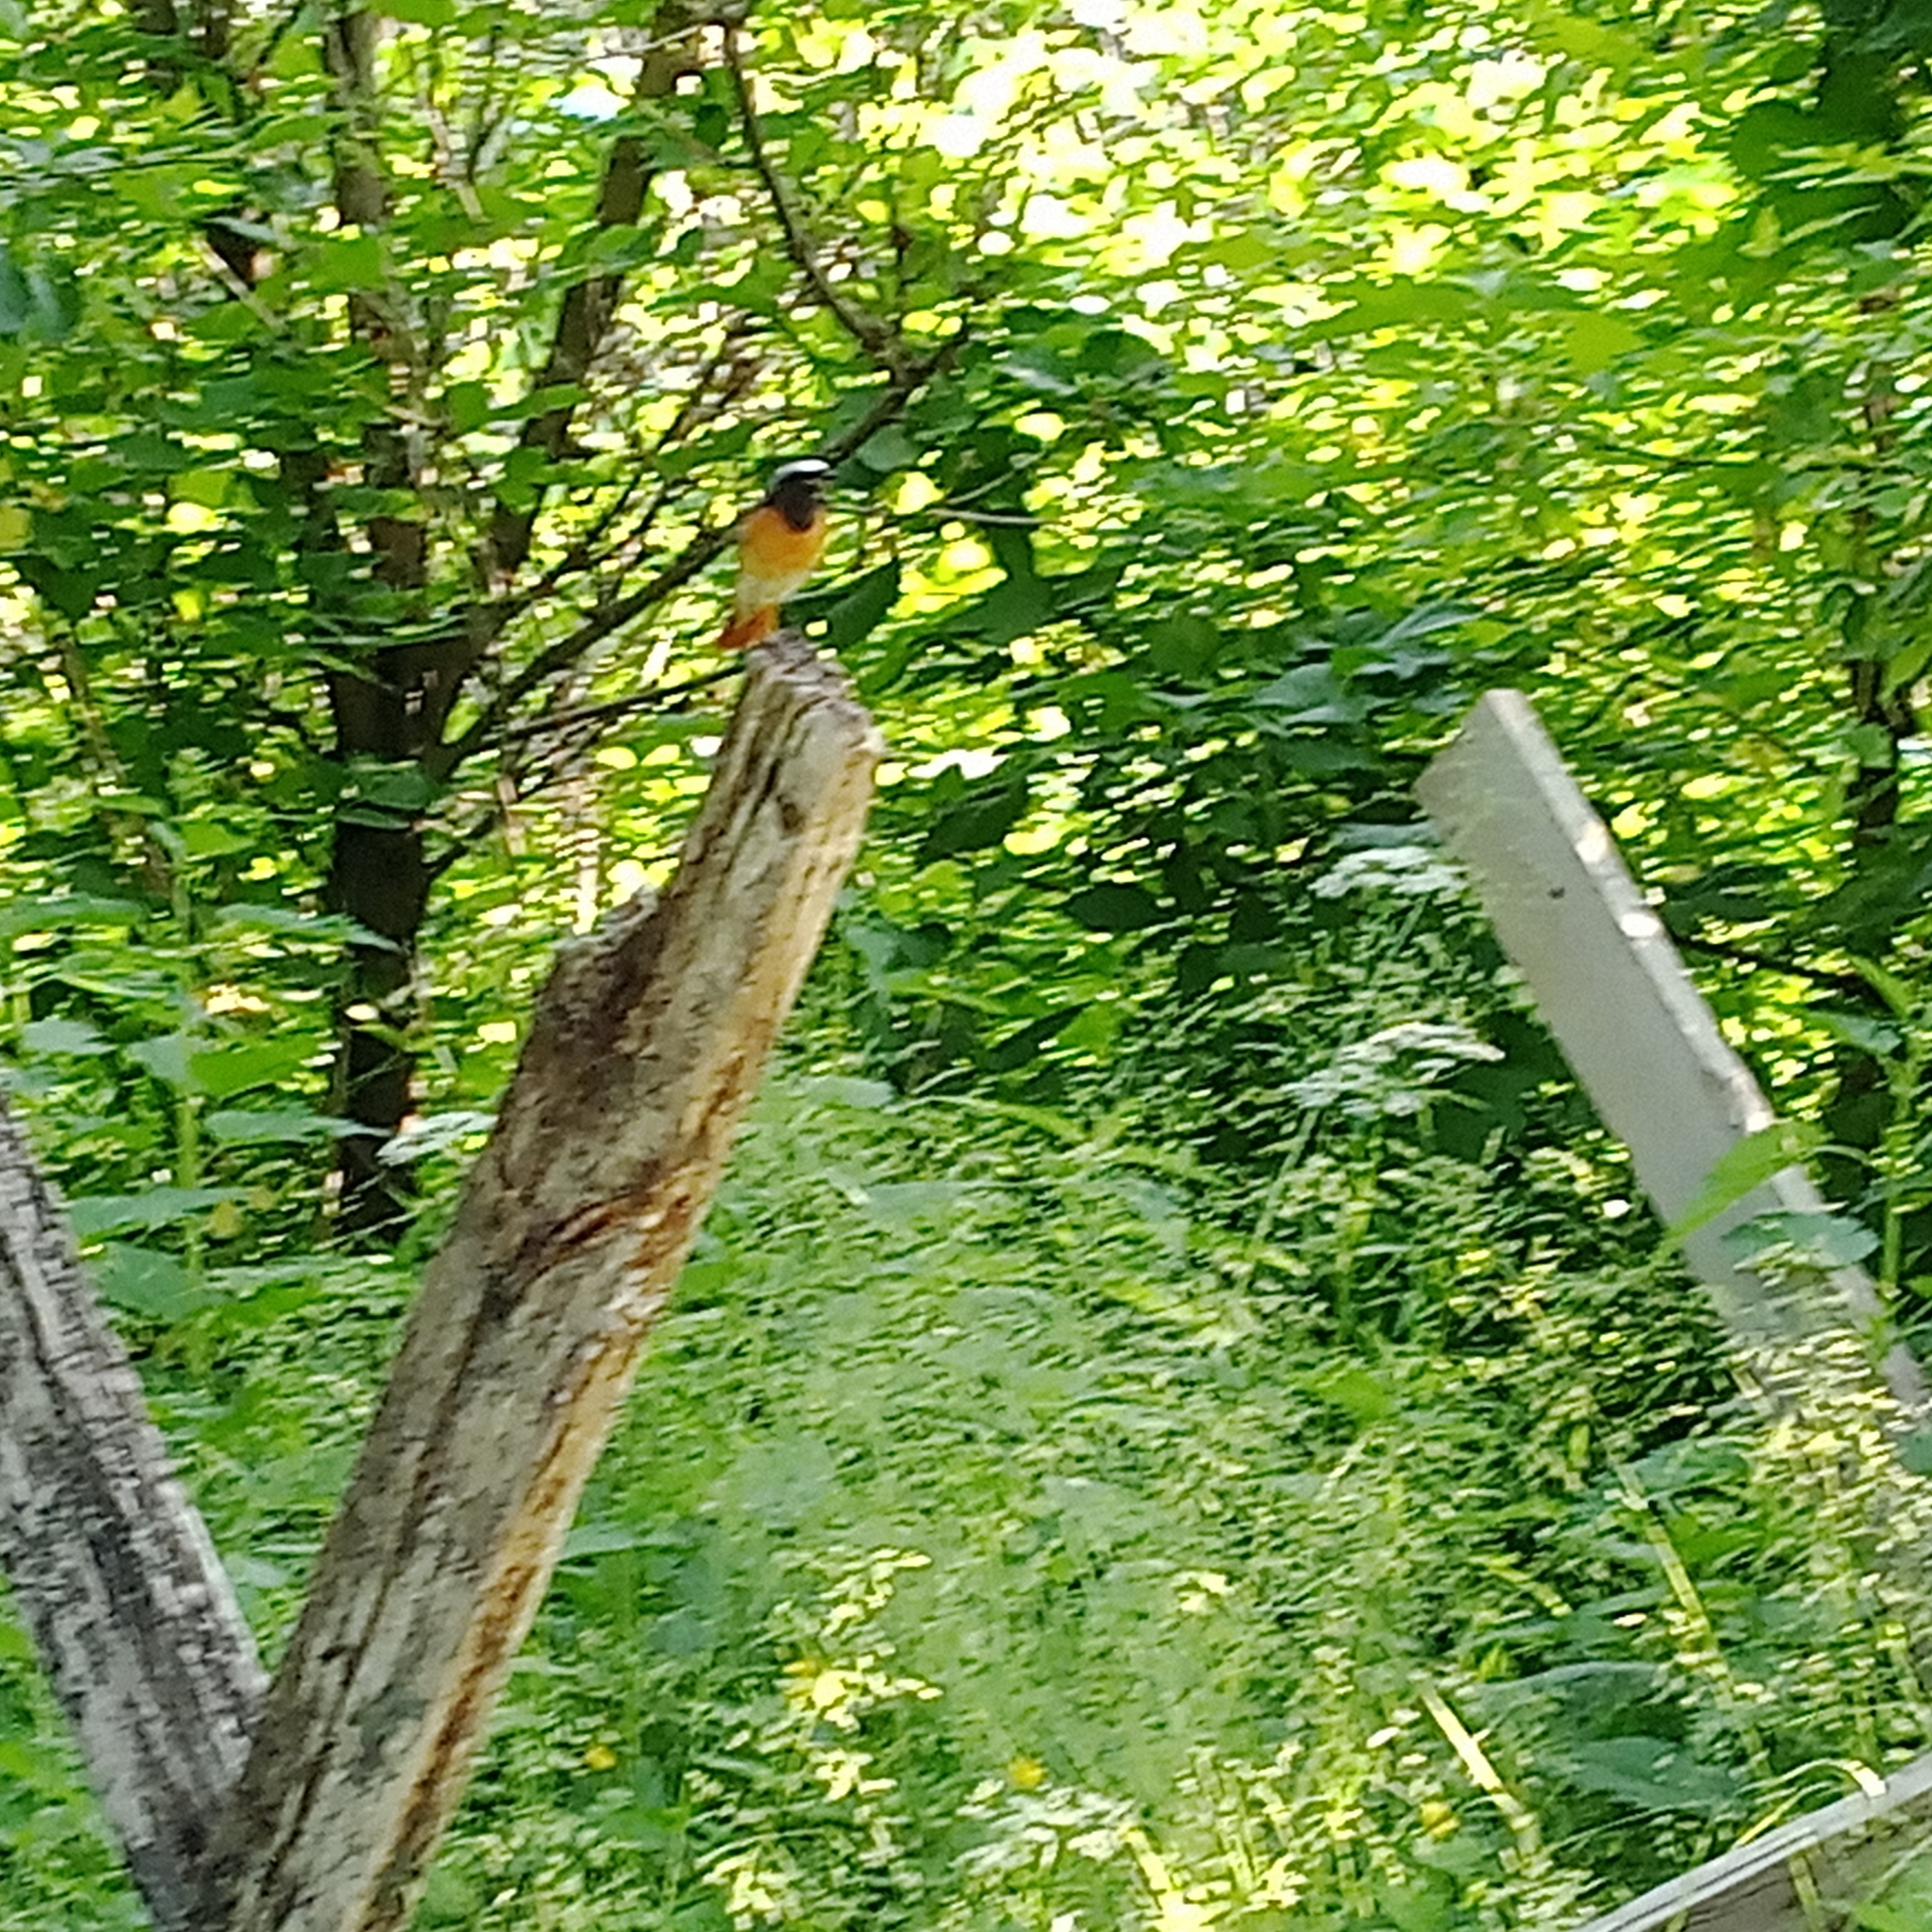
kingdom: Animalia
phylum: Chordata
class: Aves
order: Passeriformes
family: Muscicapidae
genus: Phoenicurus
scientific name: Phoenicurus phoenicurus
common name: Common redstart
